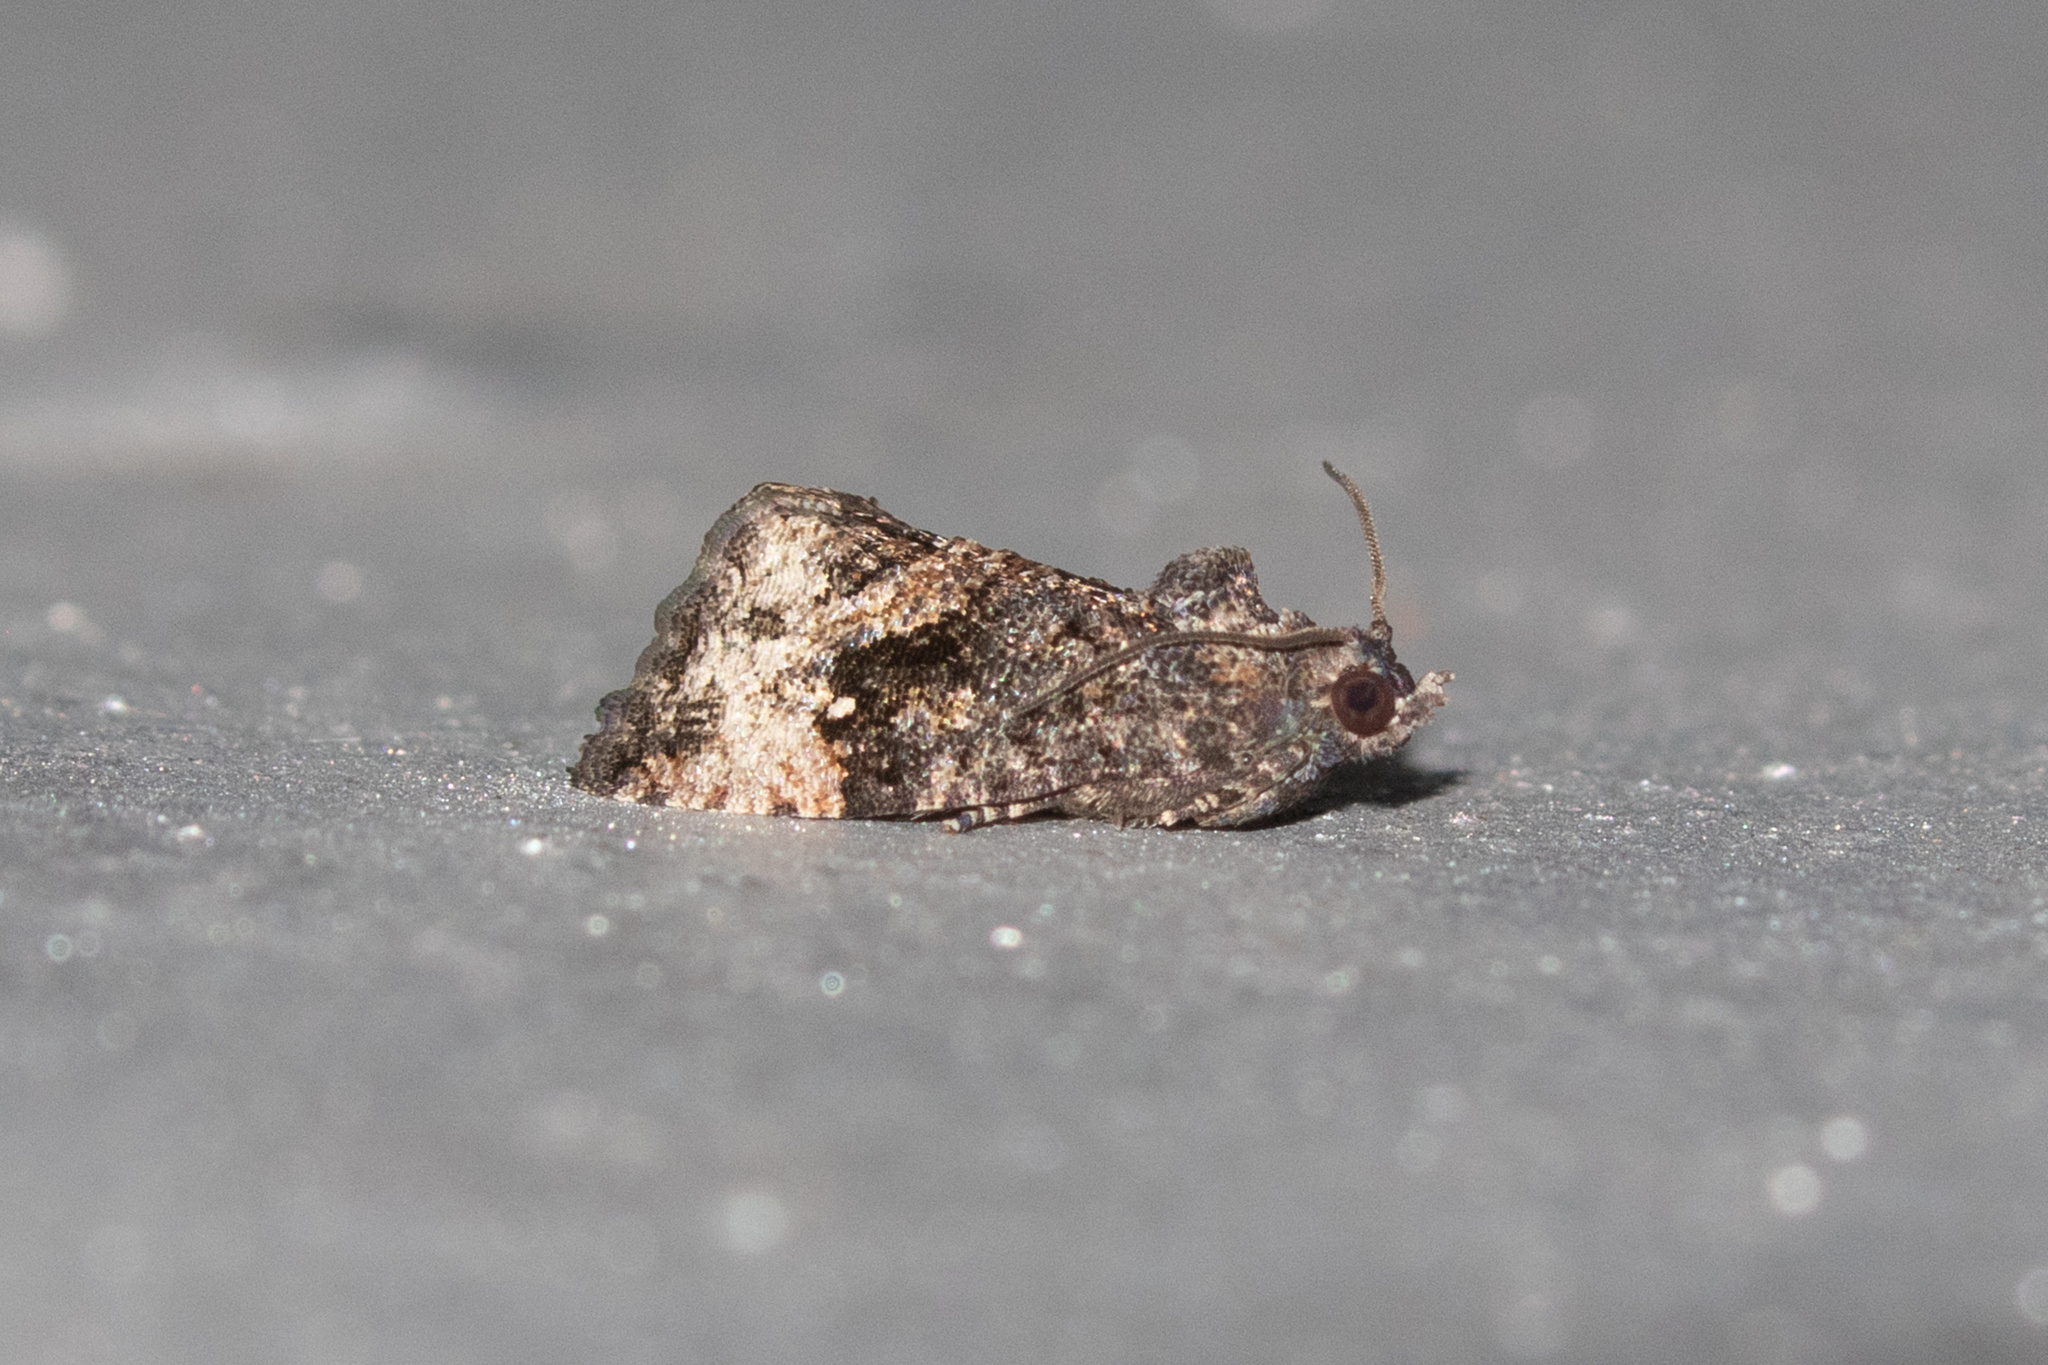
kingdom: Animalia
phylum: Arthropoda
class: Insecta
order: Lepidoptera
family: Tortricidae
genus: Gymnandrosoma
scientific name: Gymnandrosoma punctidiscanum
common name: Dotted ecdytolopha moth
